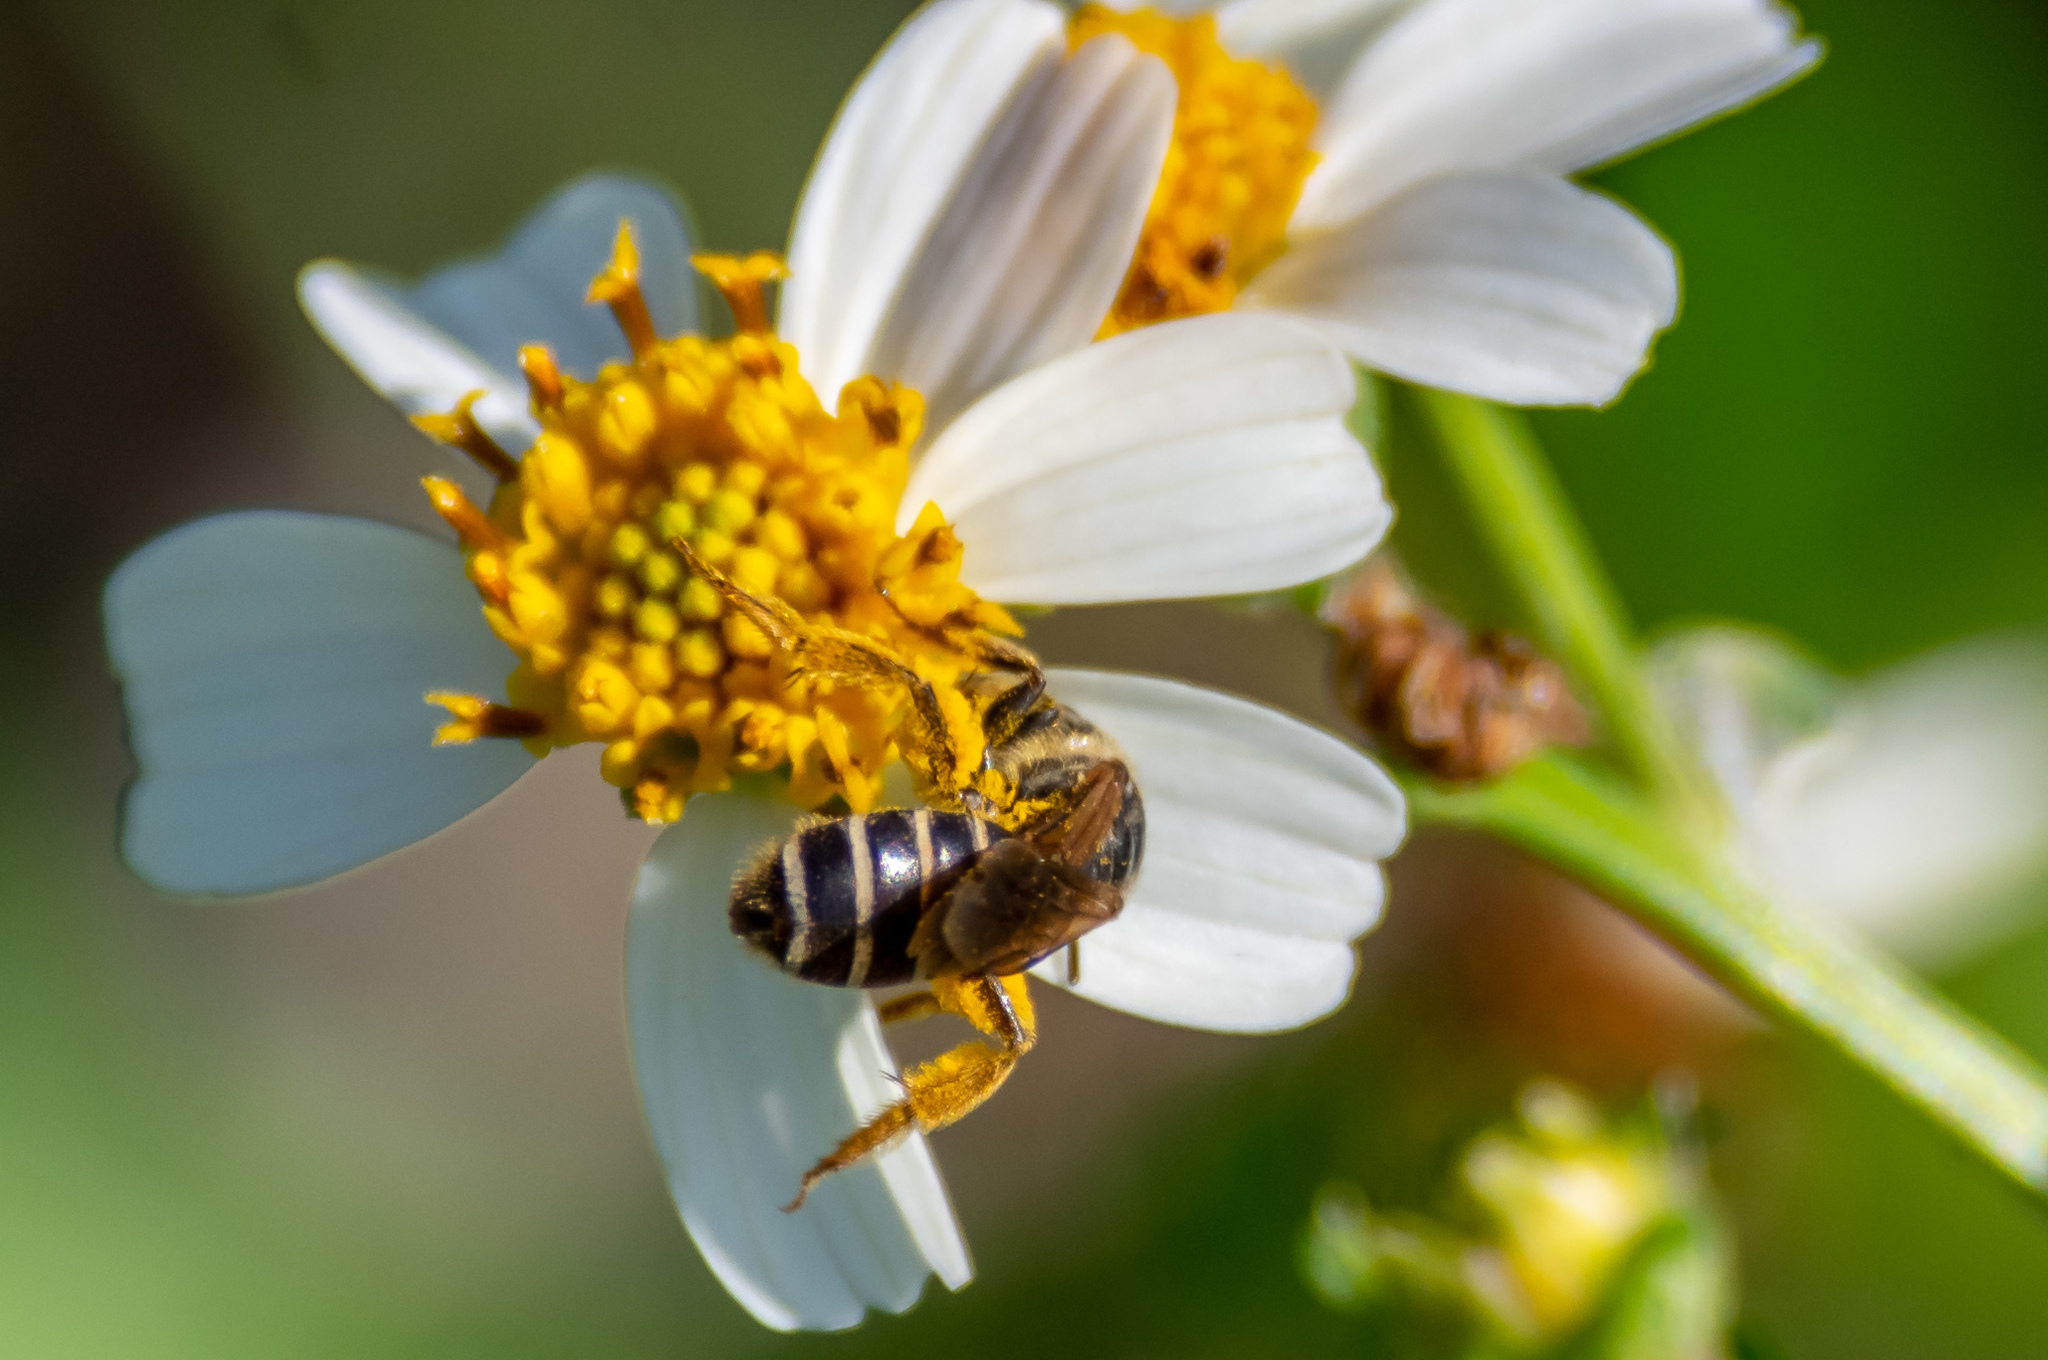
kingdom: Animalia
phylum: Arthropoda
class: Insecta
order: Hymenoptera
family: Halictidae
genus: Halictus
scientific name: Halictus poeyi
